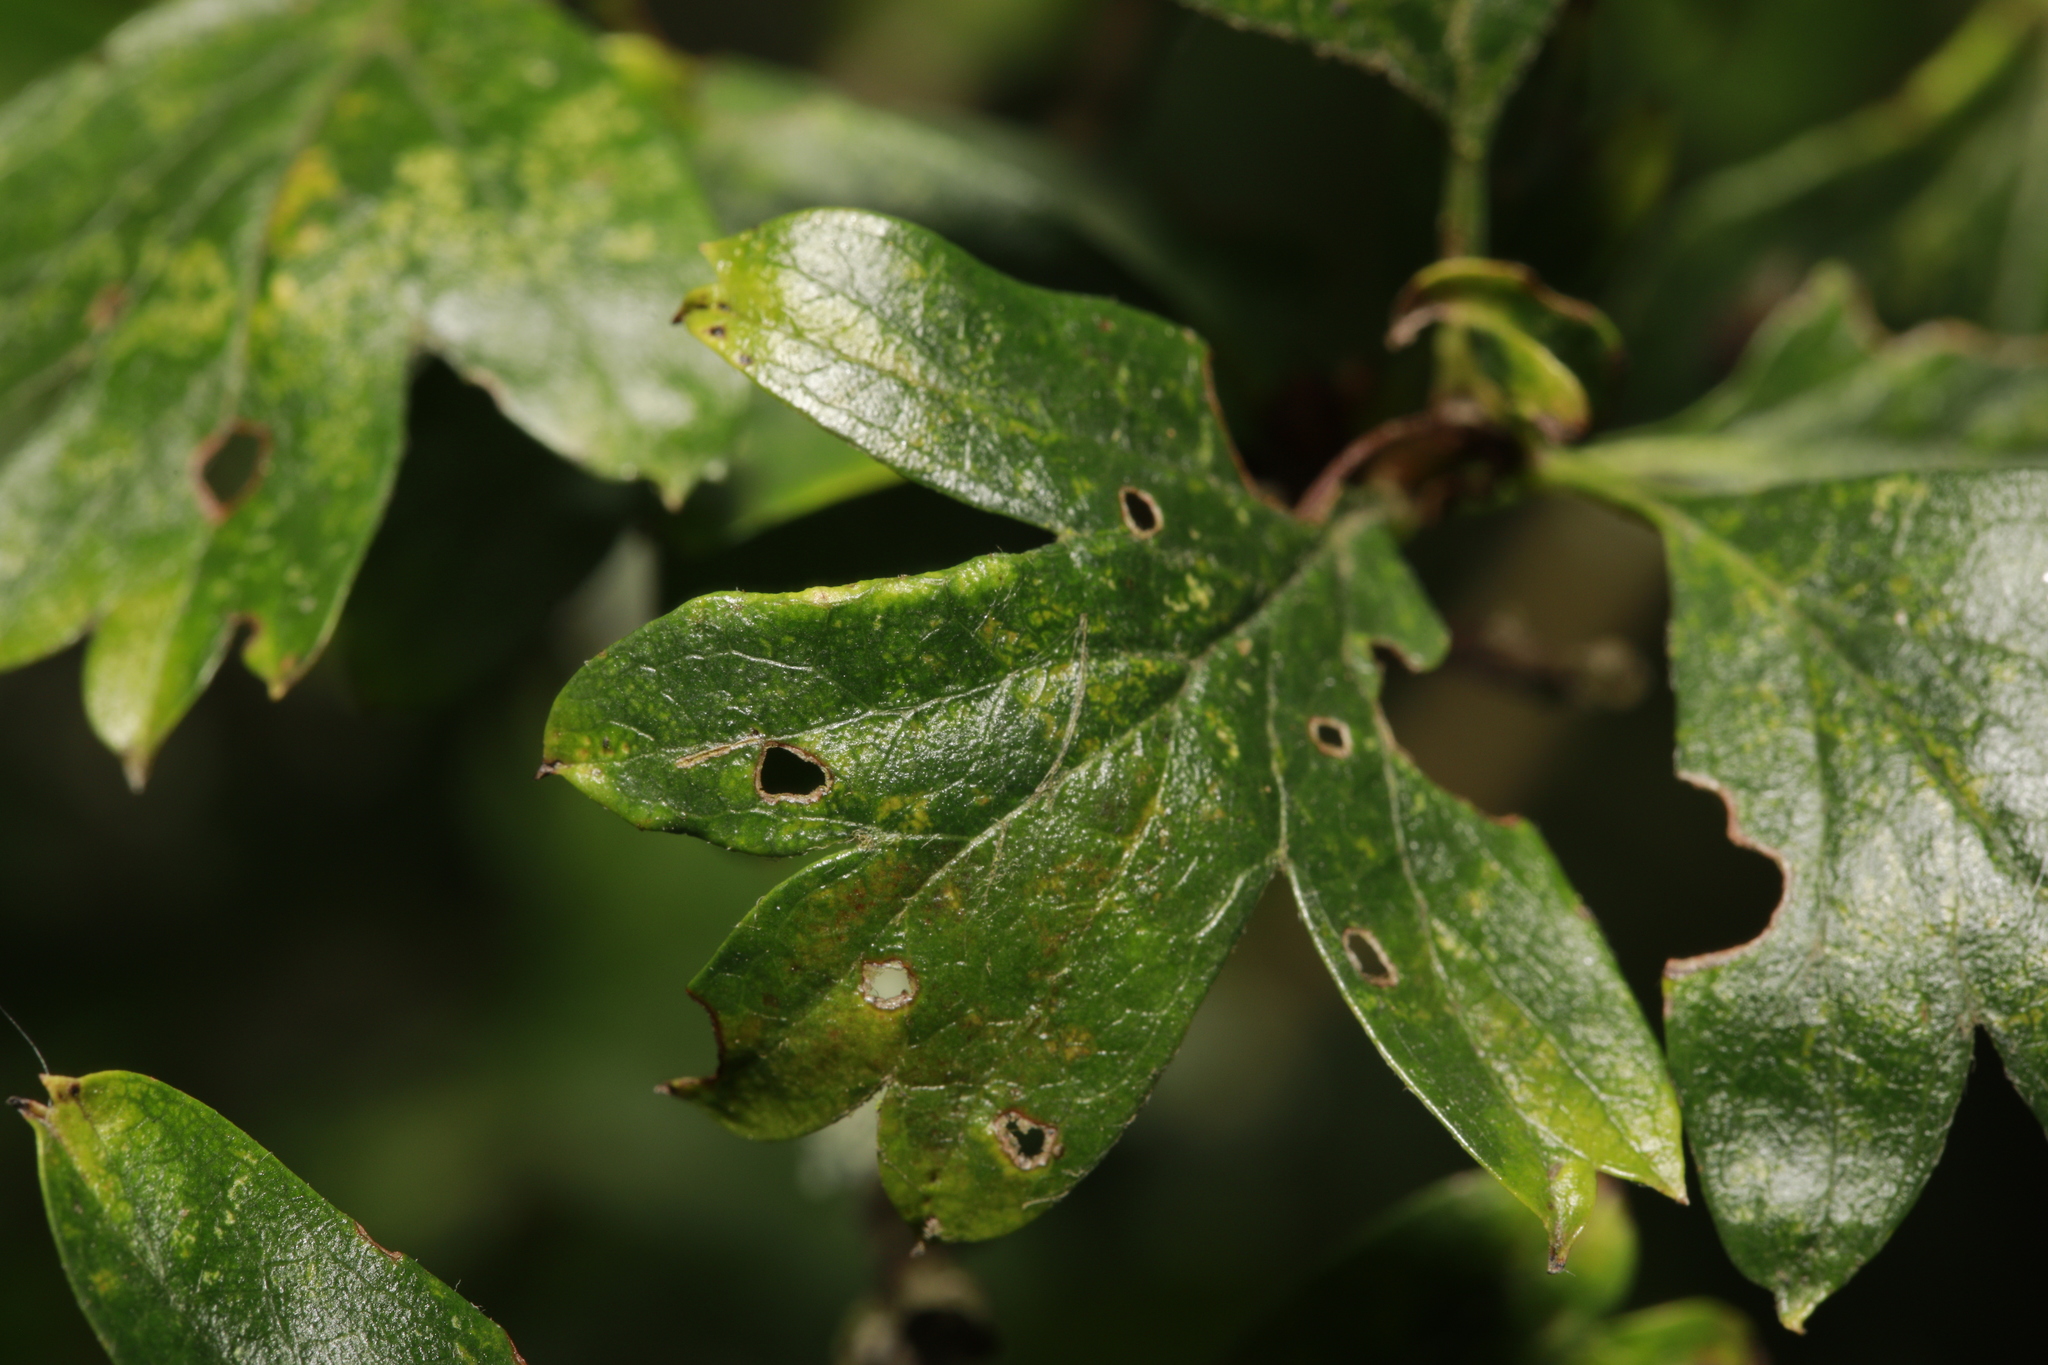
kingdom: Animalia
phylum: Arthropoda
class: Arachnida
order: Trombidiformes
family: Eriophyidae
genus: Phyllocoptes
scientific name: Phyllocoptes goniothorax
